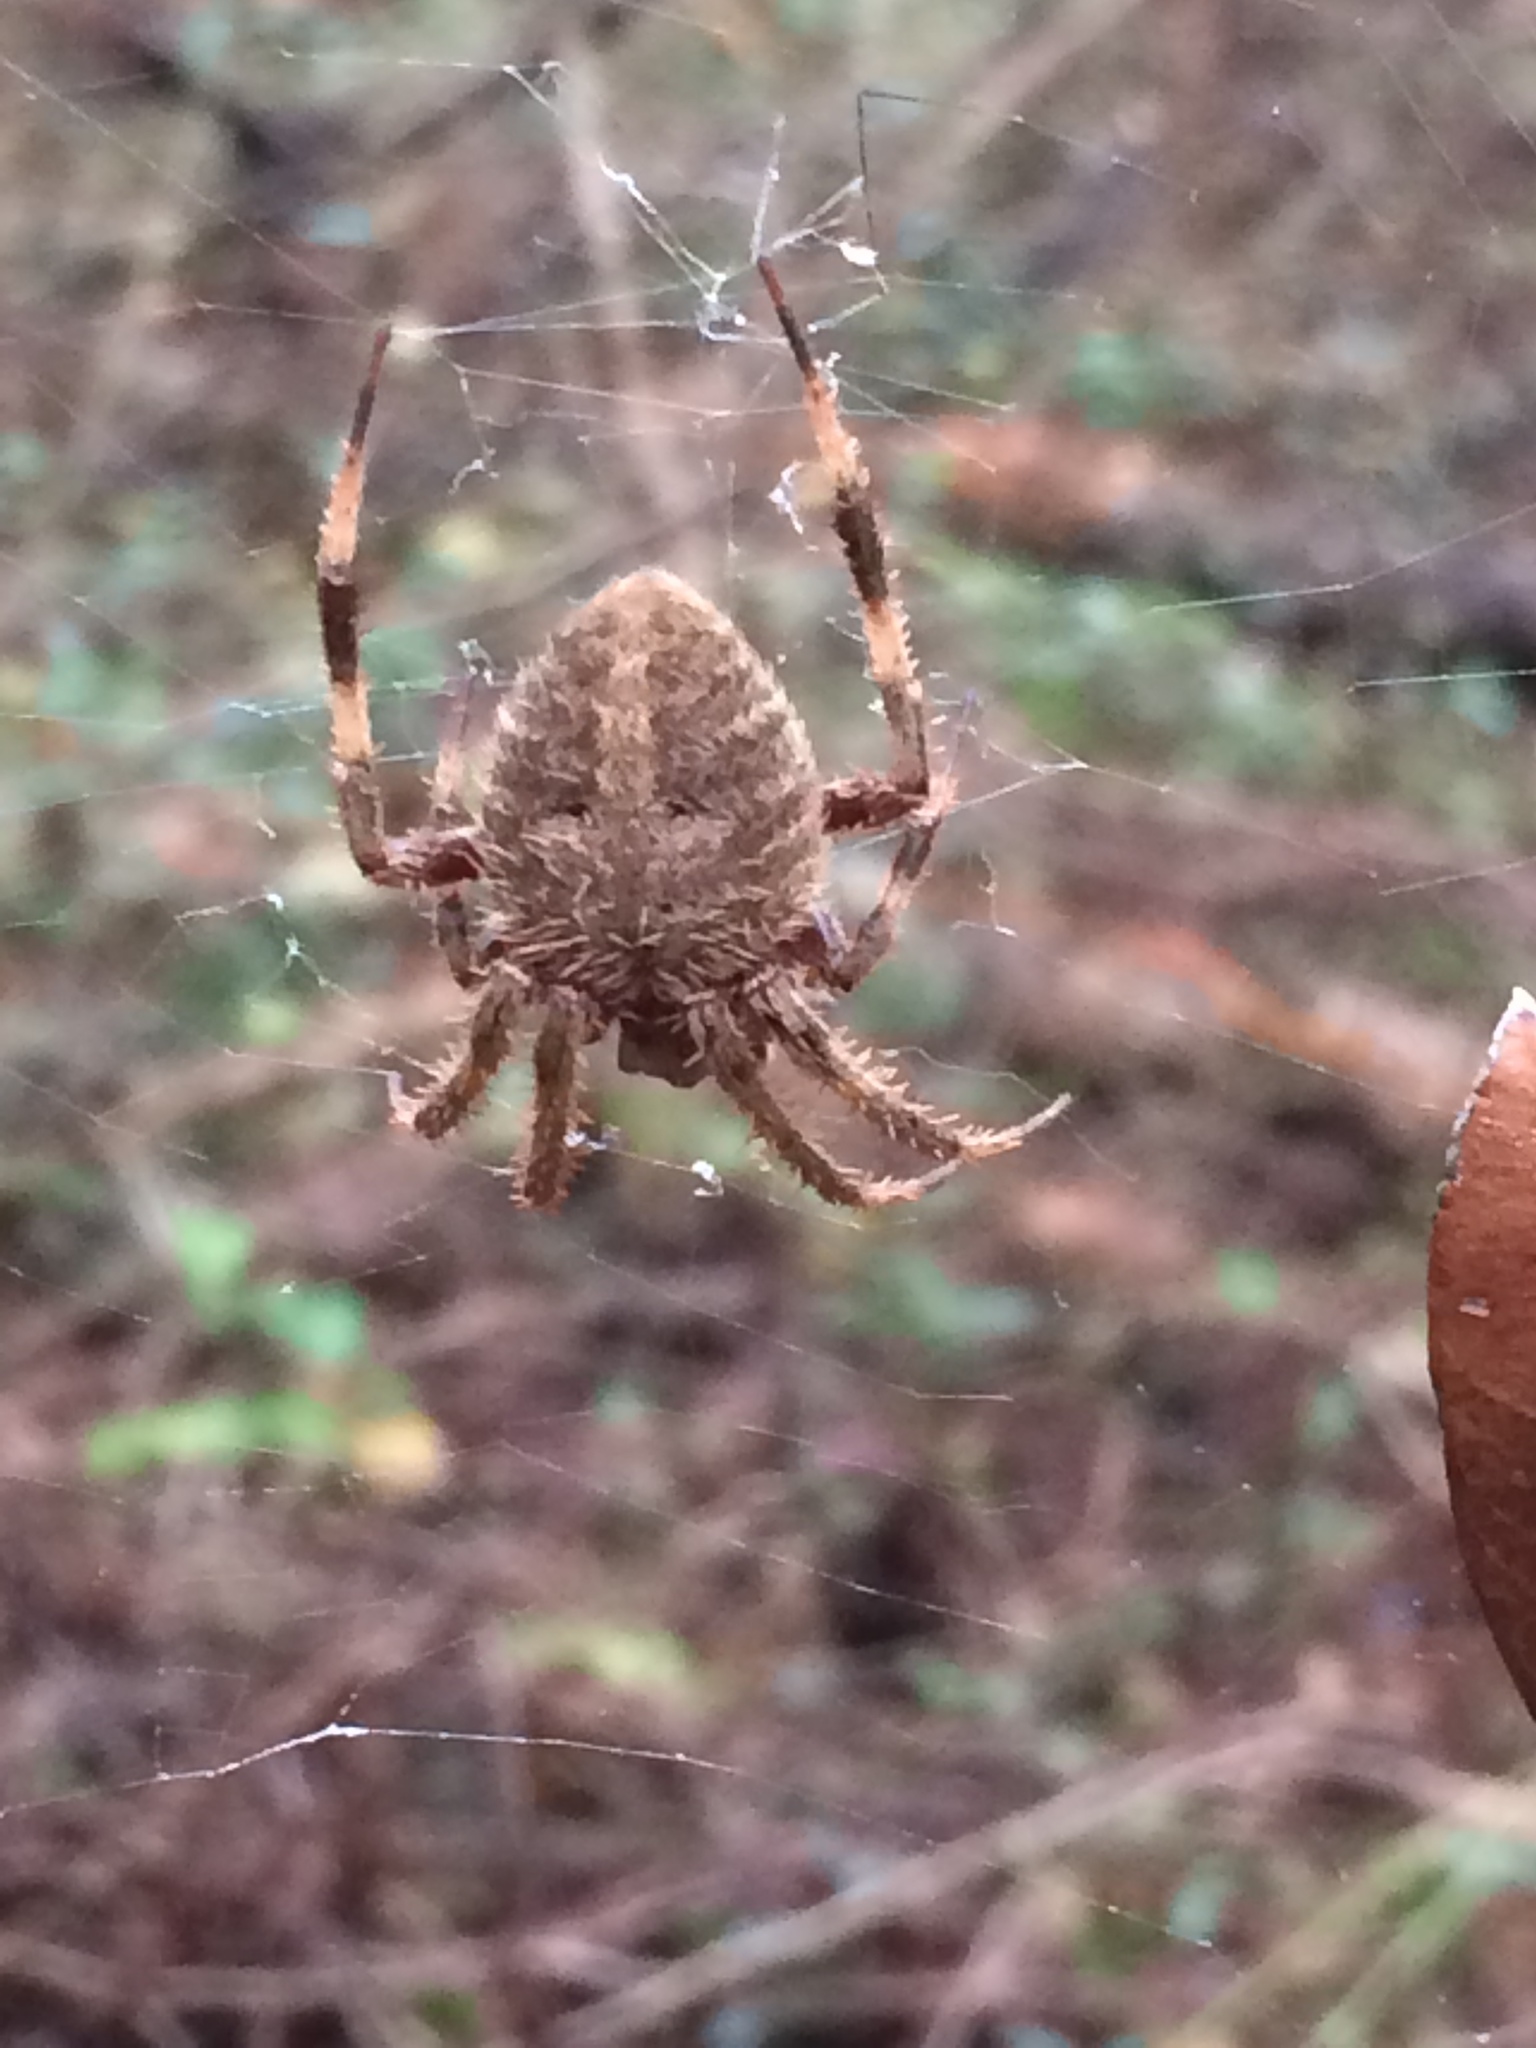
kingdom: Animalia
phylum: Arthropoda
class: Arachnida
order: Araneae
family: Araneidae
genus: Neoscona
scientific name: Neoscona crucifera
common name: Spotted orbweaver
